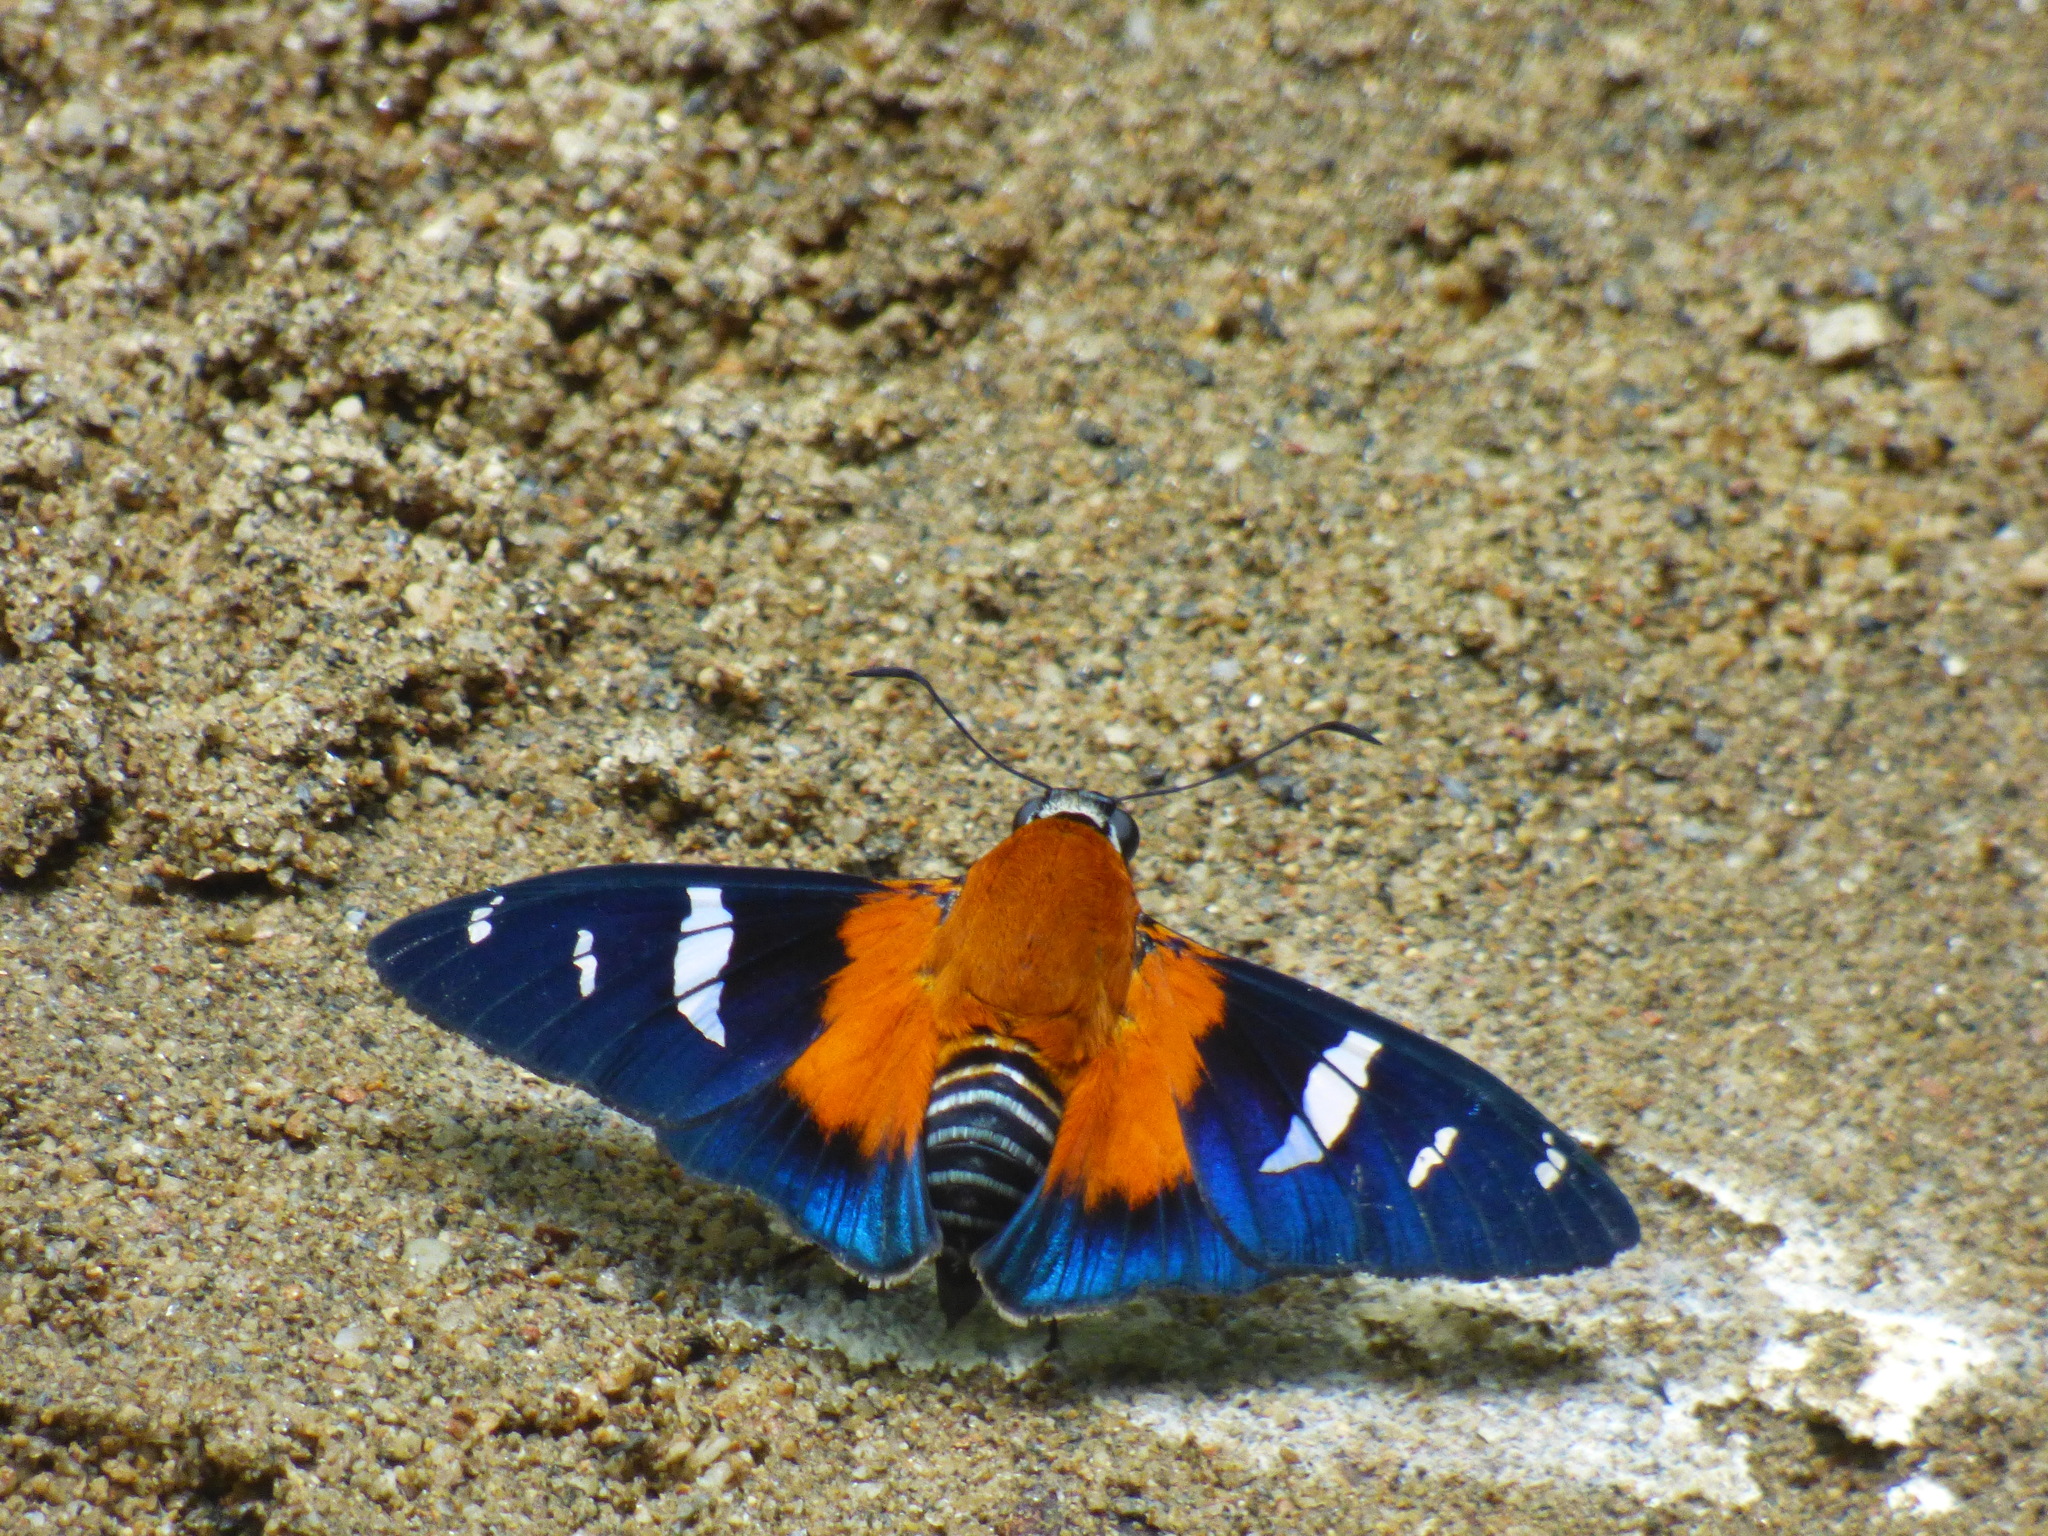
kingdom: Animalia
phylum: Arthropoda
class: Insecta
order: Lepidoptera
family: Hesperiidae
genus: Pyrrhopyge
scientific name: Pyrrhopyge Yanguna cosyra
